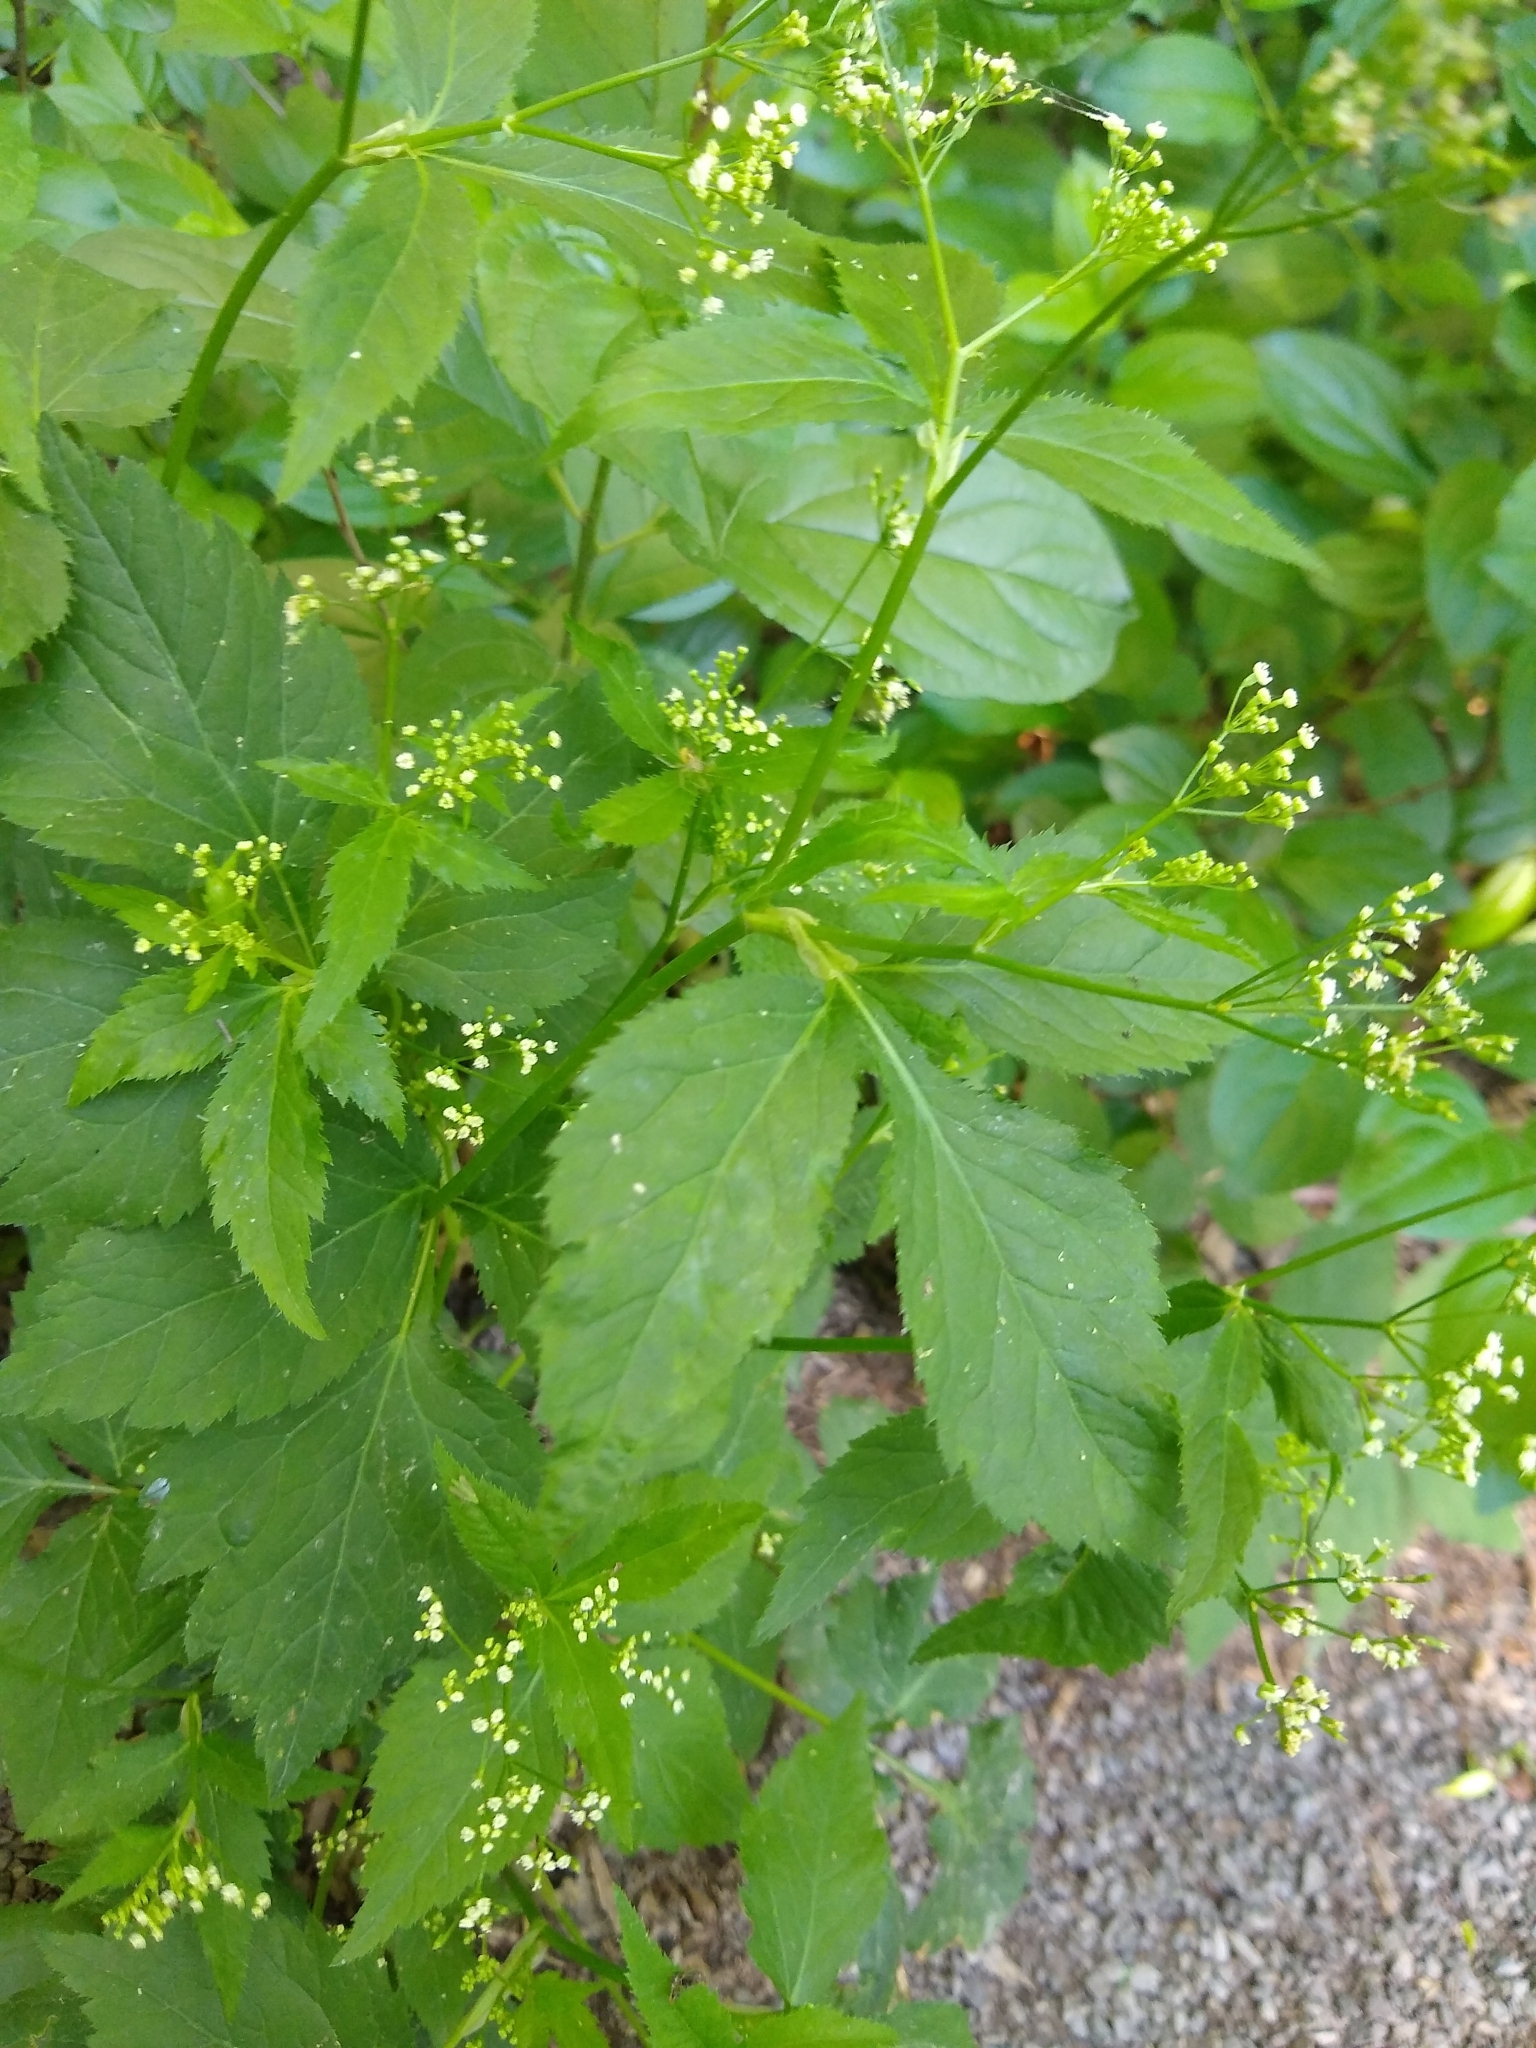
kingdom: Plantae
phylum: Tracheophyta
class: Magnoliopsida
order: Apiales
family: Apiaceae
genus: Cryptotaenia
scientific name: Cryptotaenia canadensis
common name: Honewort
